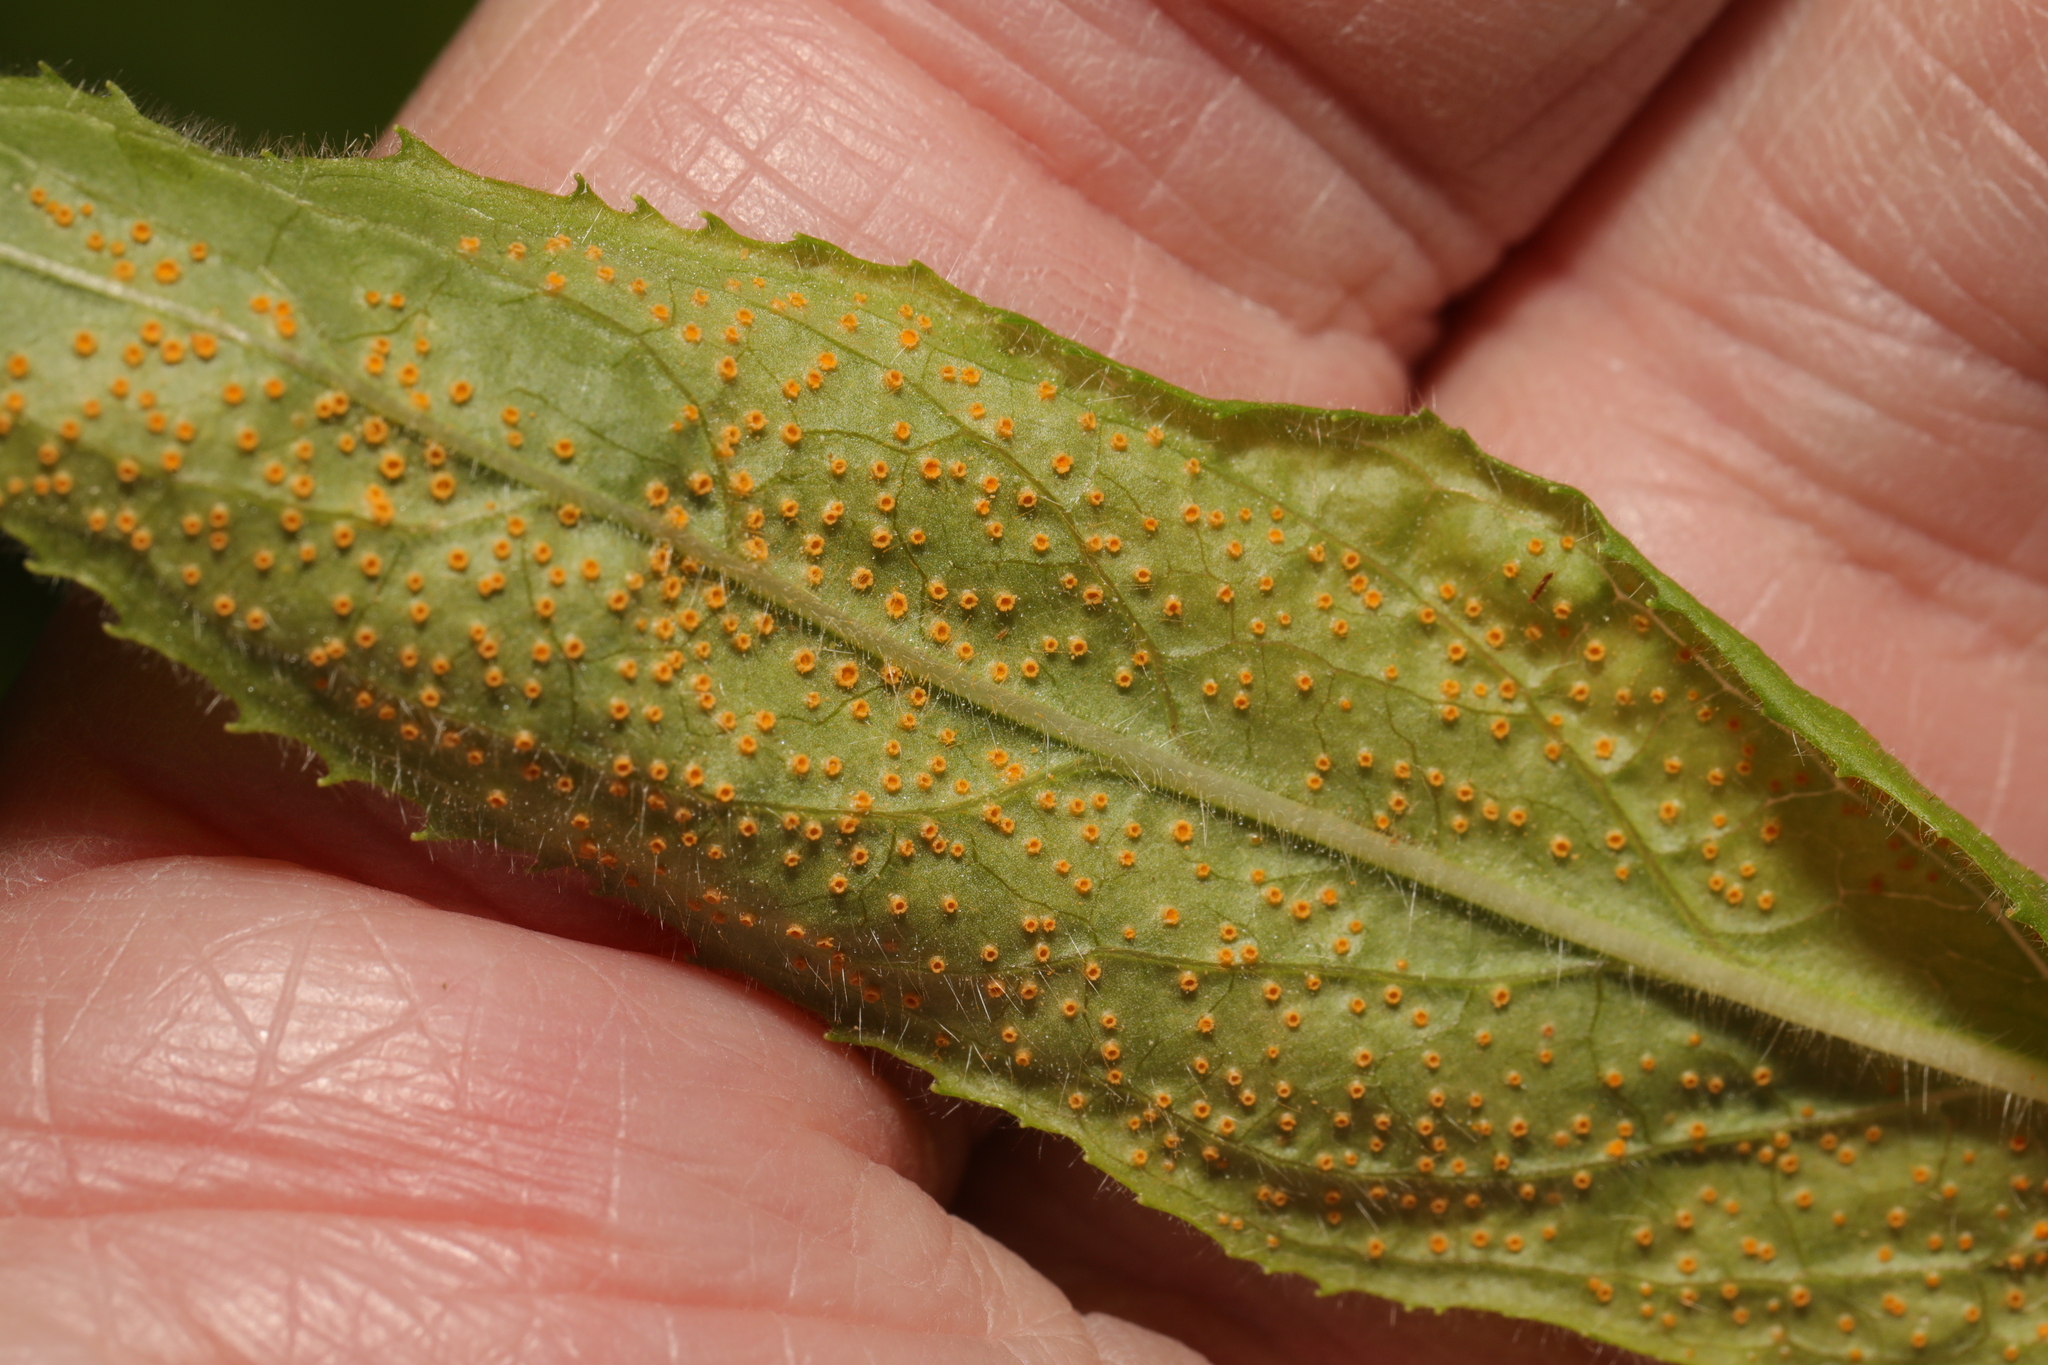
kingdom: Fungi
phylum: Basidiomycota
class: Pucciniomycetes
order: Pucciniales
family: Pucciniaceae
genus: Puccinia
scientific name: Puccinia pulverulenta
